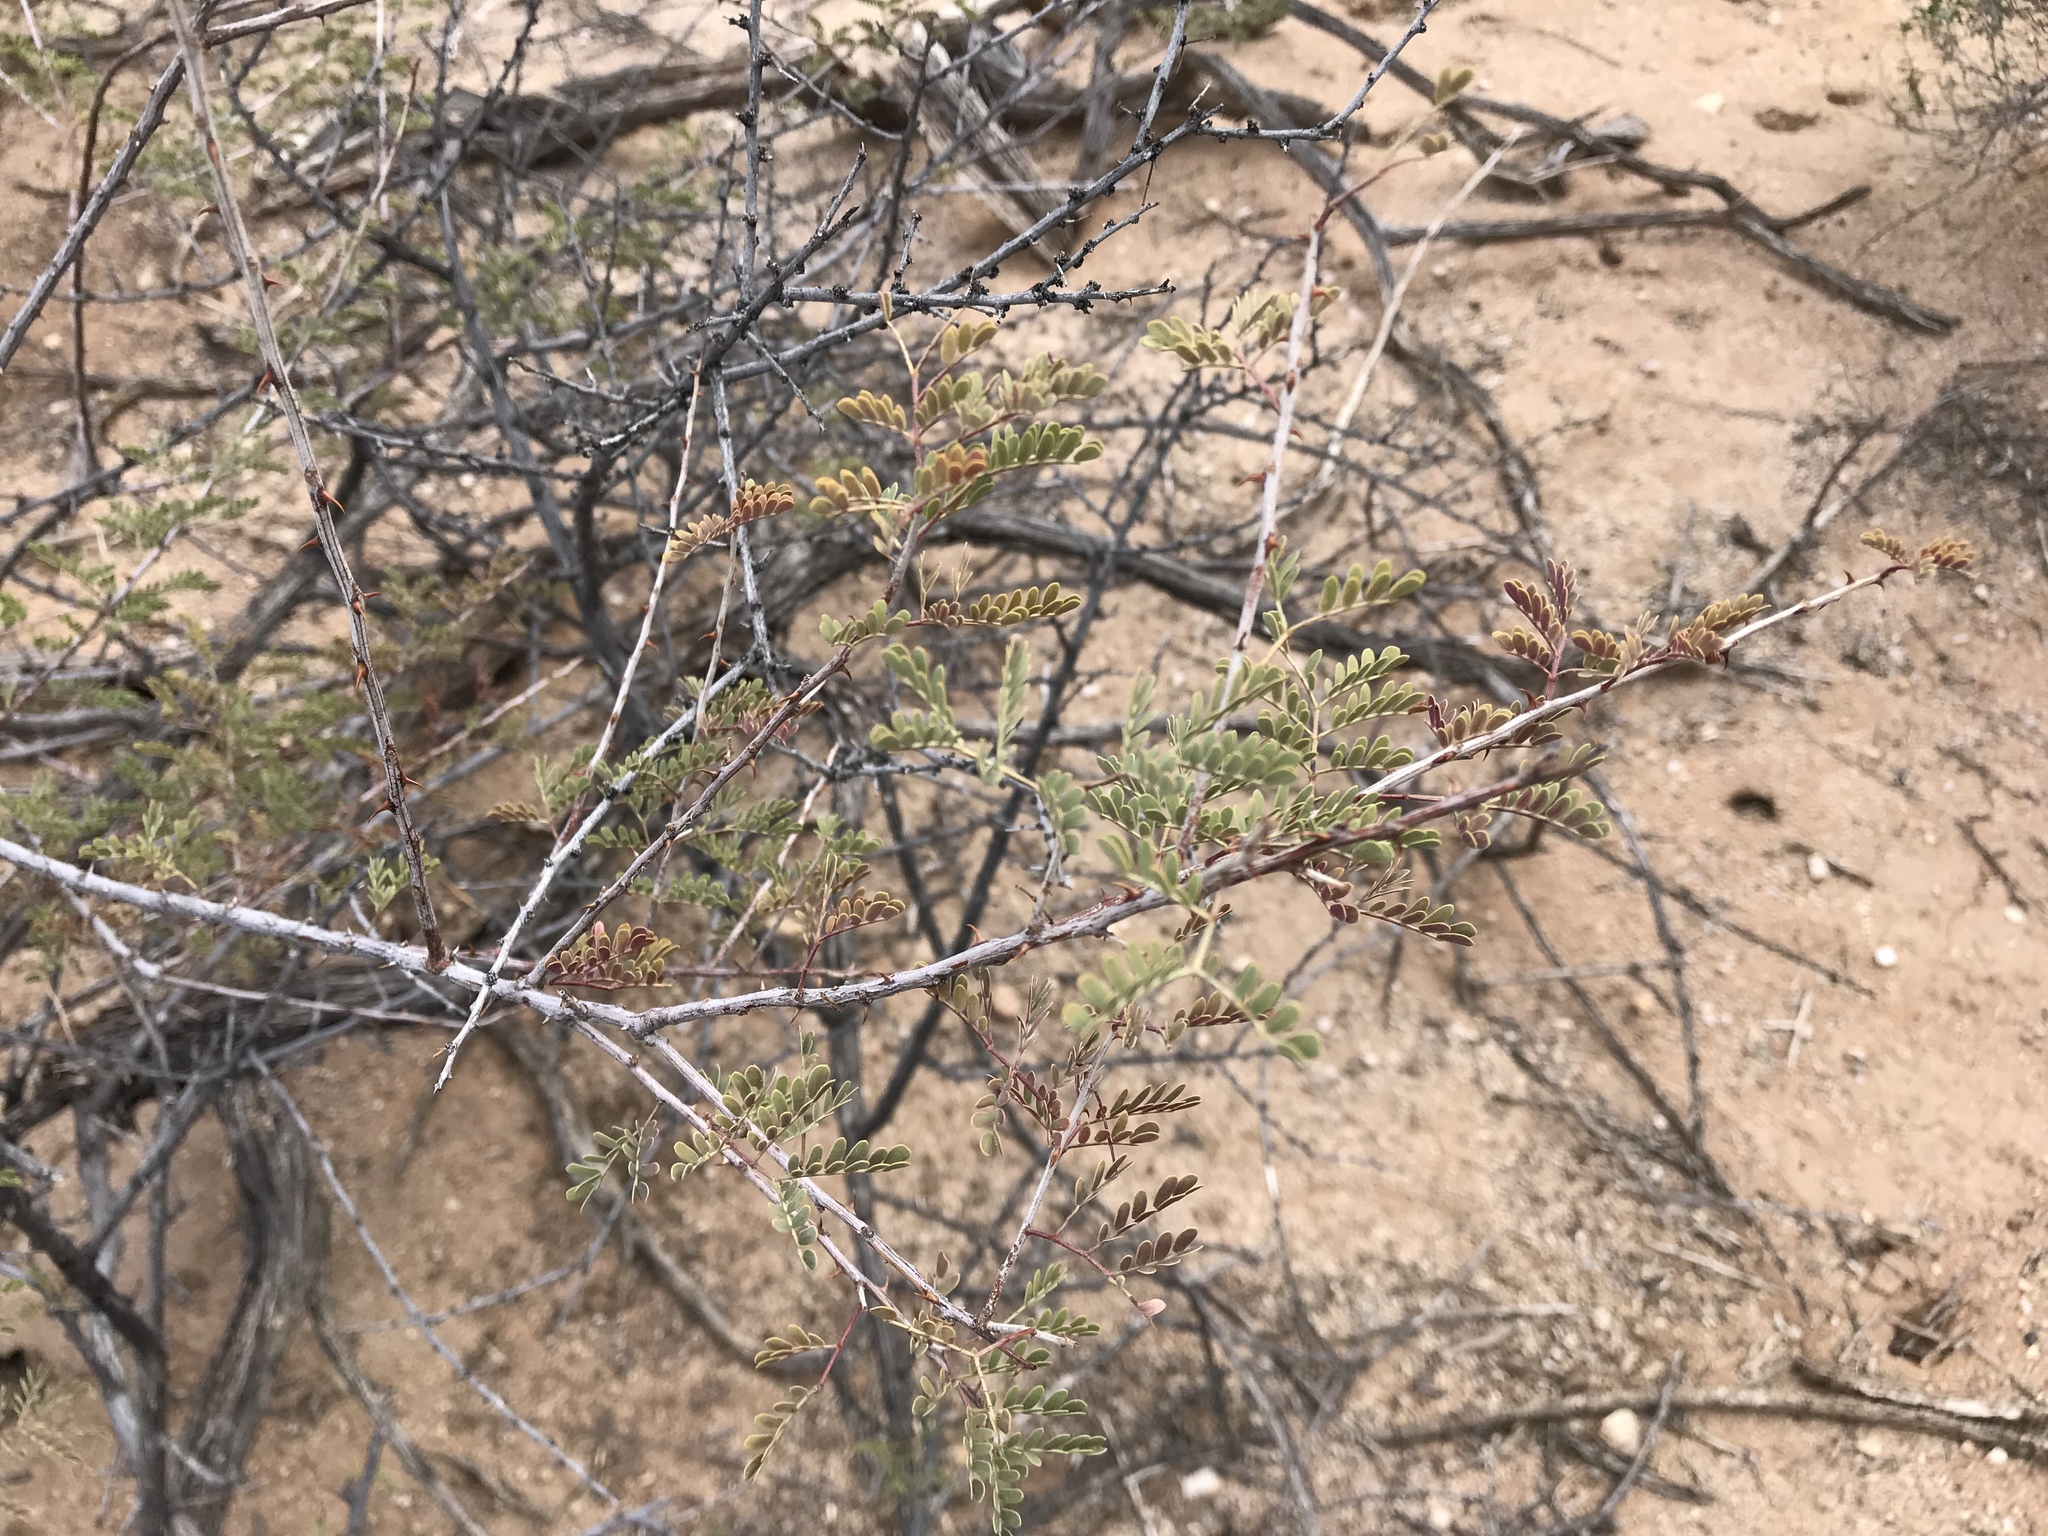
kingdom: Plantae
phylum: Tracheophyta
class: Magnoliopsida
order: Fabales
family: Fabaceae
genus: Vachellia
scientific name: Vachellia constricta
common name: Mescat acacia
